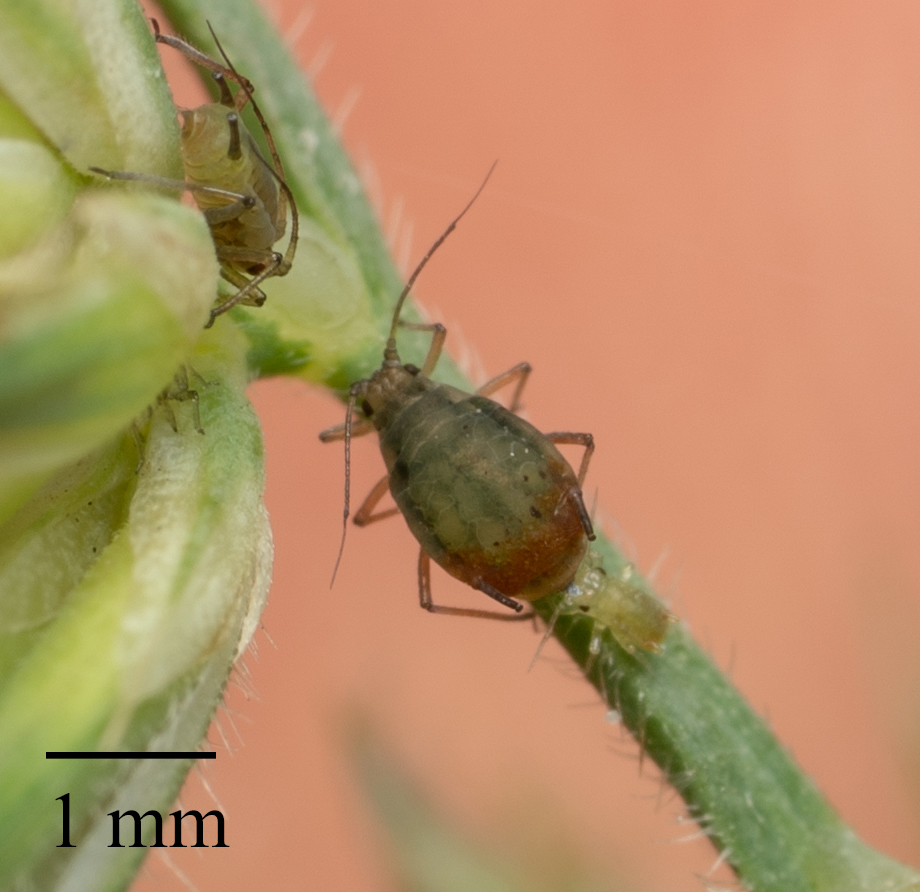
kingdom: Animalia
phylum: Arthropoda
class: Insecta
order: Hemiptera
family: Aphididae
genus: Rhopalosiphum
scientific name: Rhopalosiphum padi
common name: Oat-birdcherry aphid
